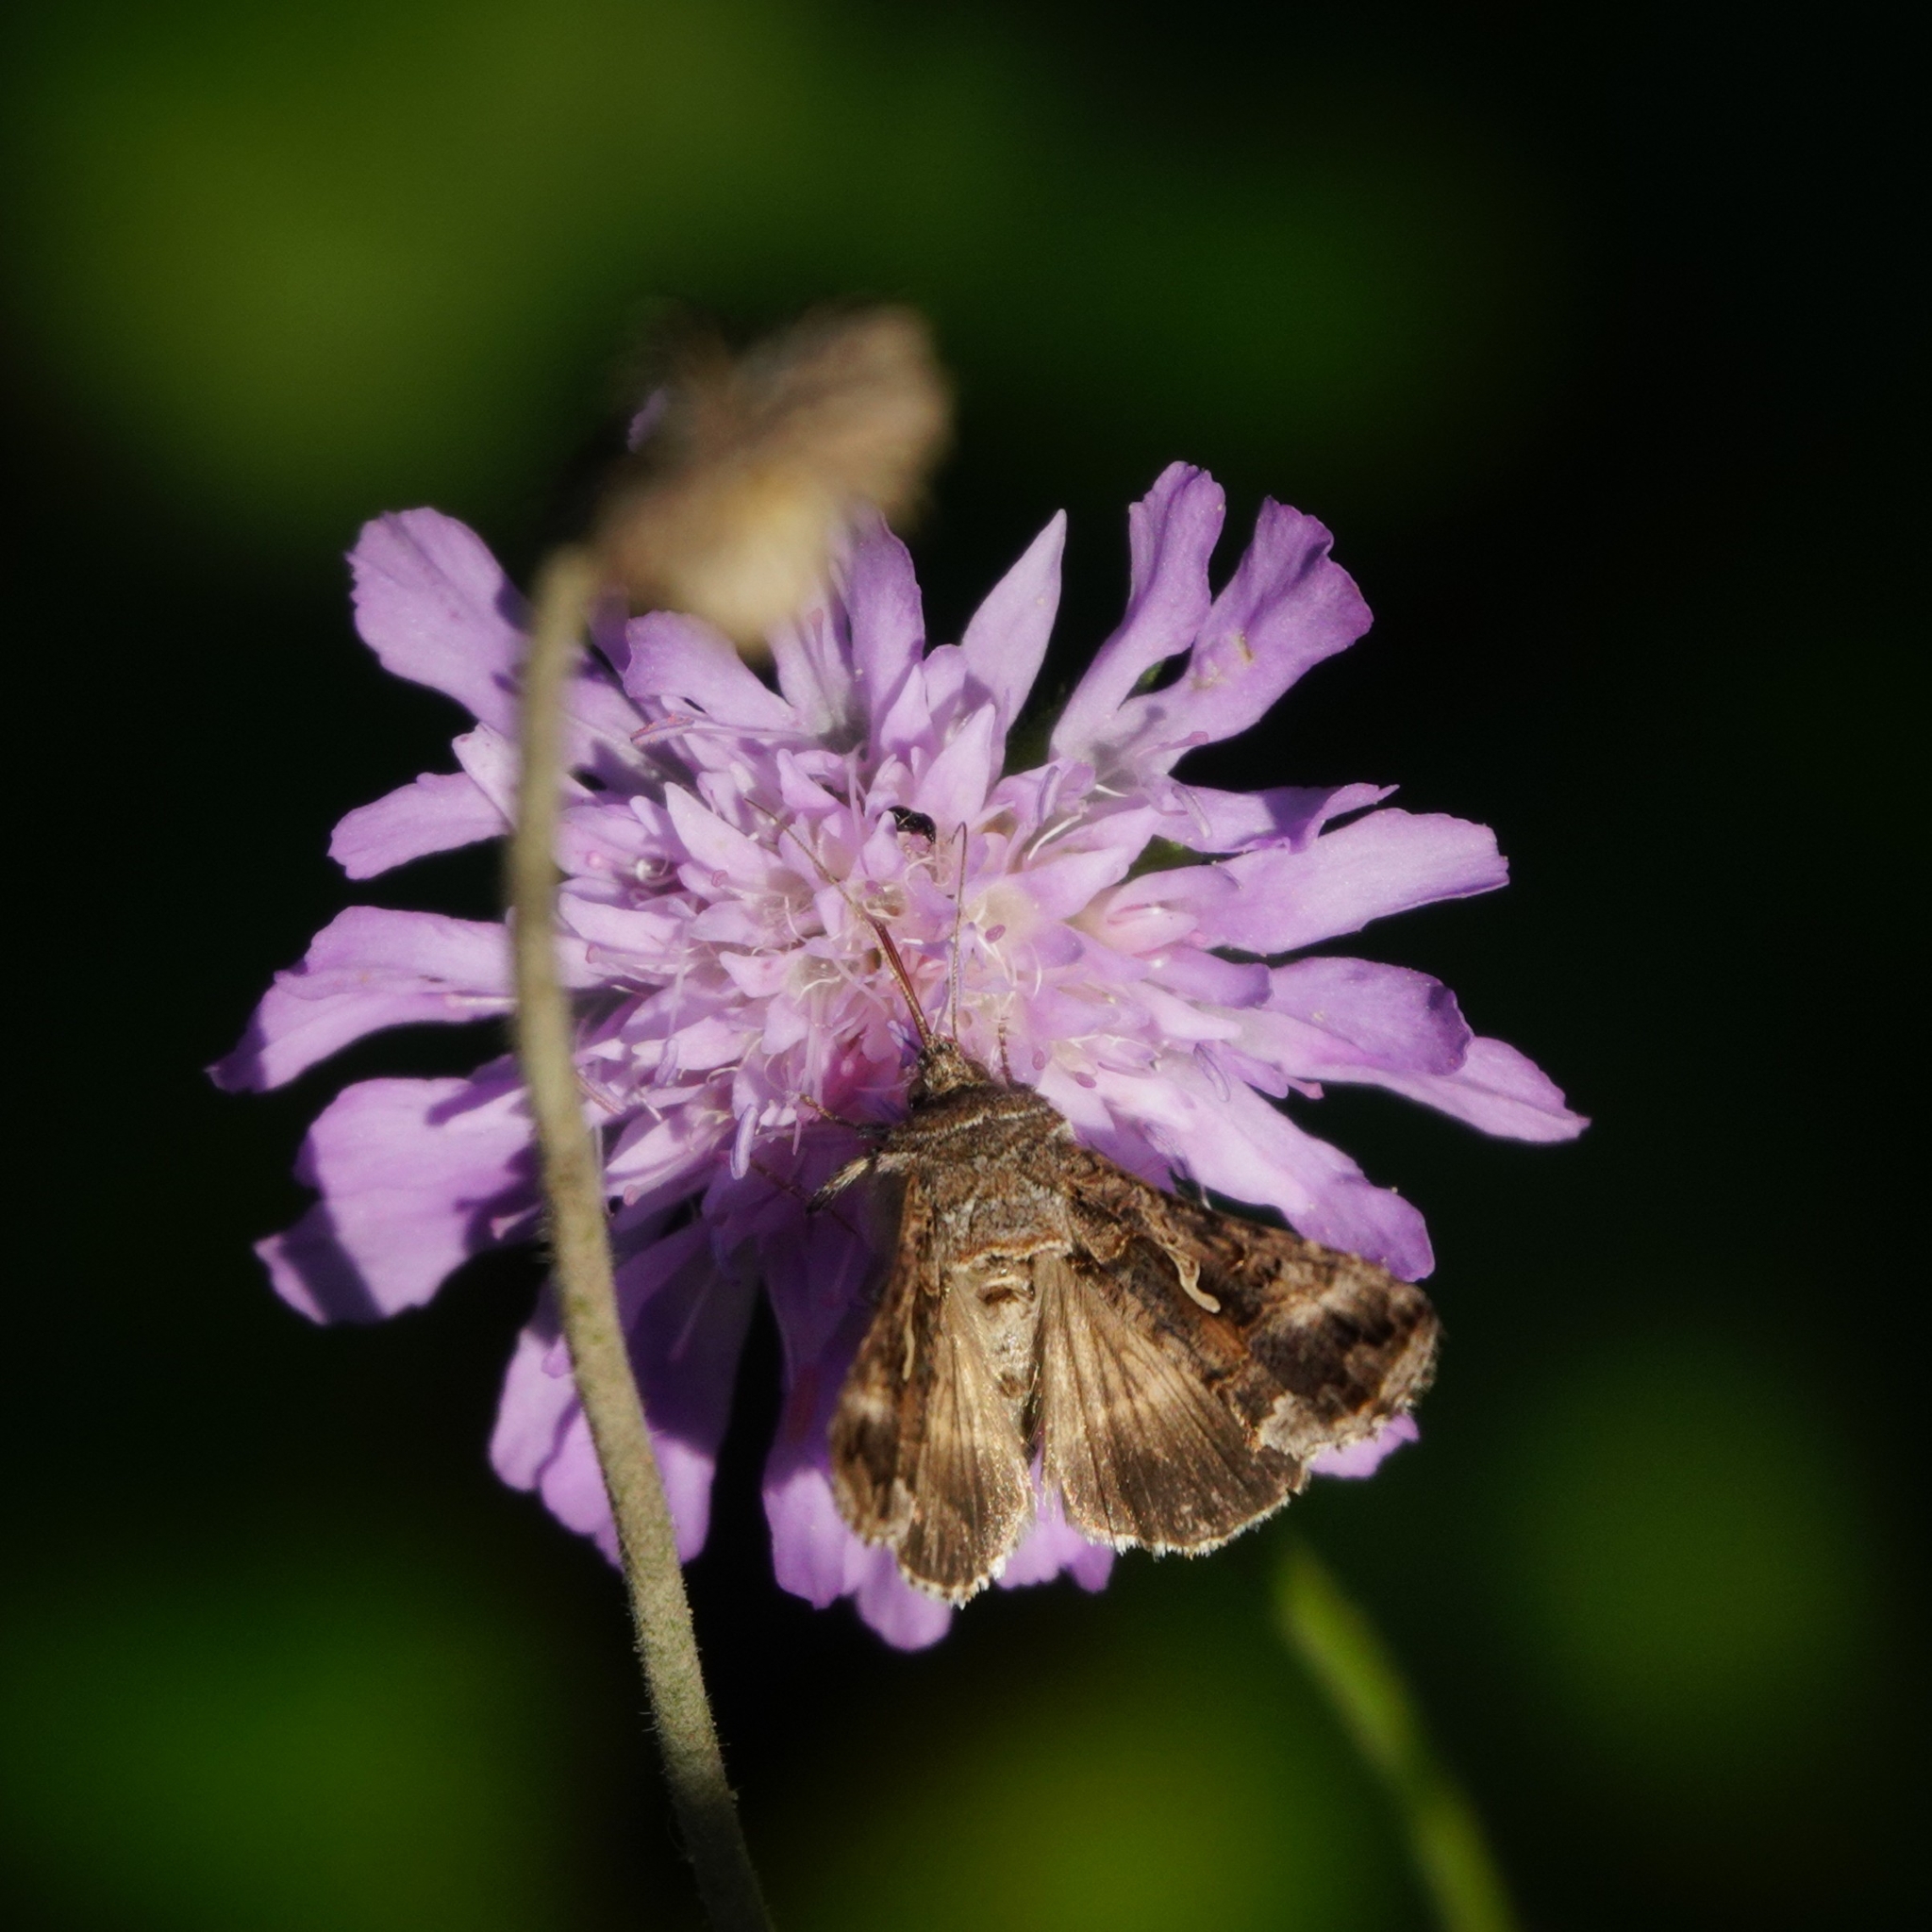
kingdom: Animalia
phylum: Arthropoda
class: Insecta
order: Lepidoptera
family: Noctuidae
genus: Autographa
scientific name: Autographa gamma
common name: Silver y
